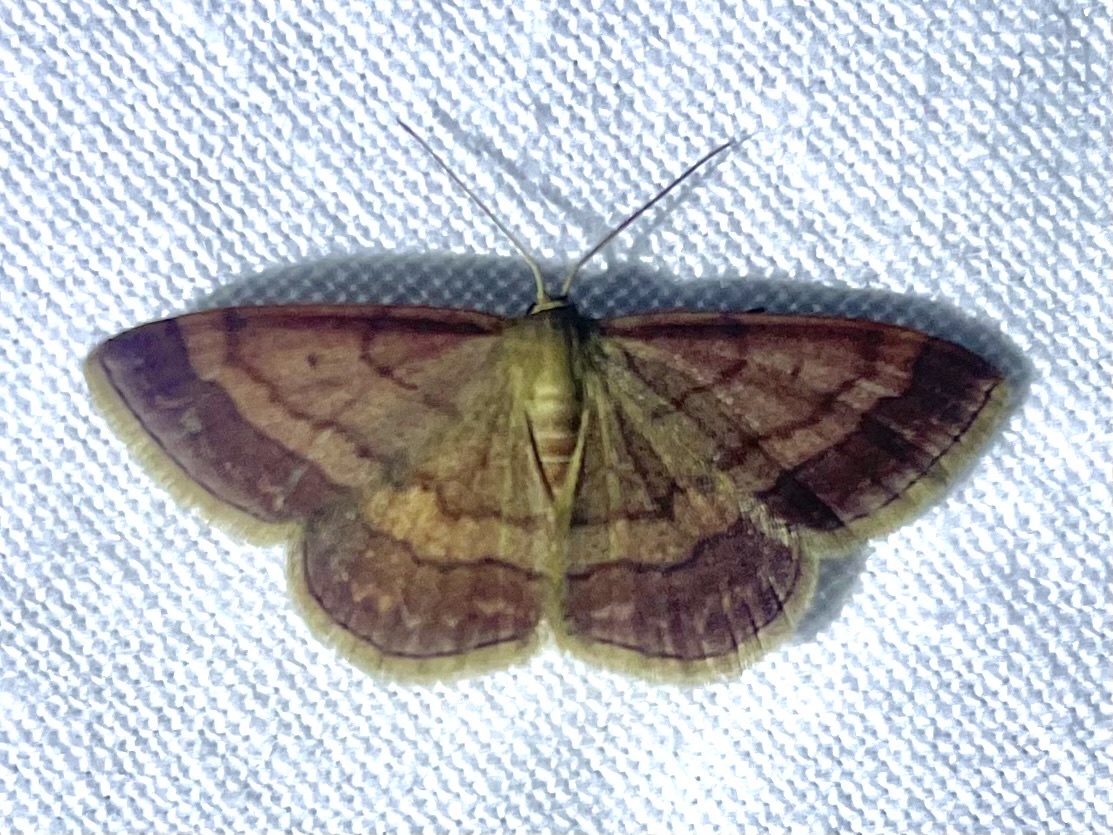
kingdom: Animalia
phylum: Arthropoda
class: Insecta
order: Lepidoptera
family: Geometridae
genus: Scopula
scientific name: Scopula rubiginata
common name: Tawny wave
